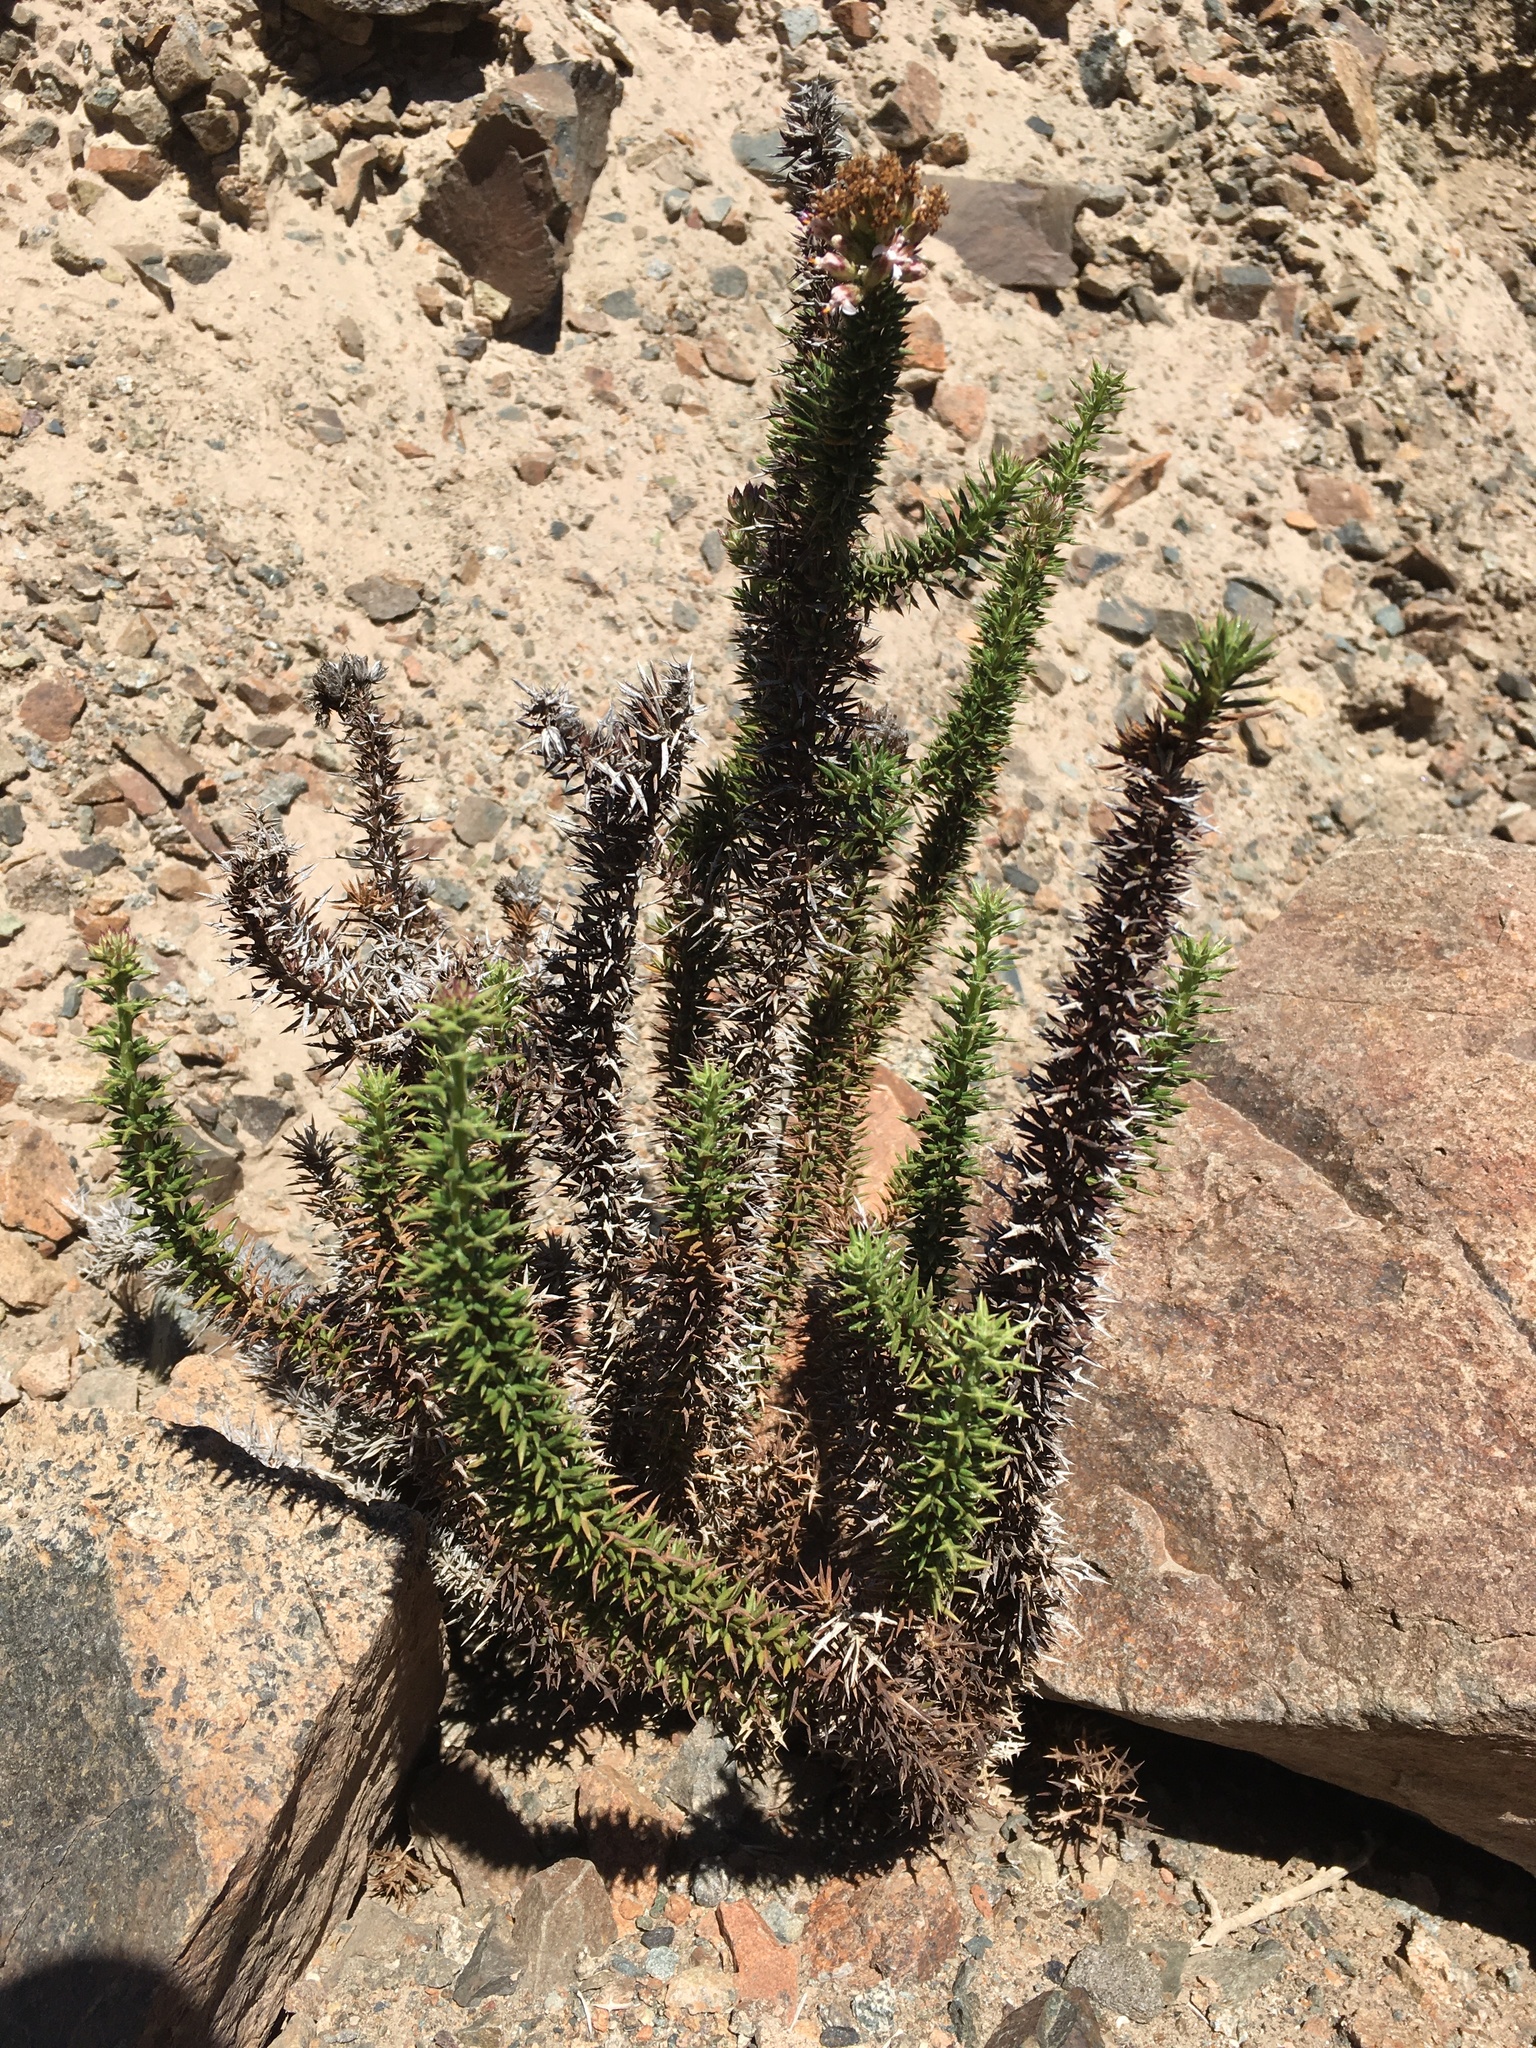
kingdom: Plantae
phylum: Tracheophyta
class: Magnoliopsida
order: Asterales
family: Asteraceae
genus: Oxyphyllum
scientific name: Oxyphyllum ulicinum
